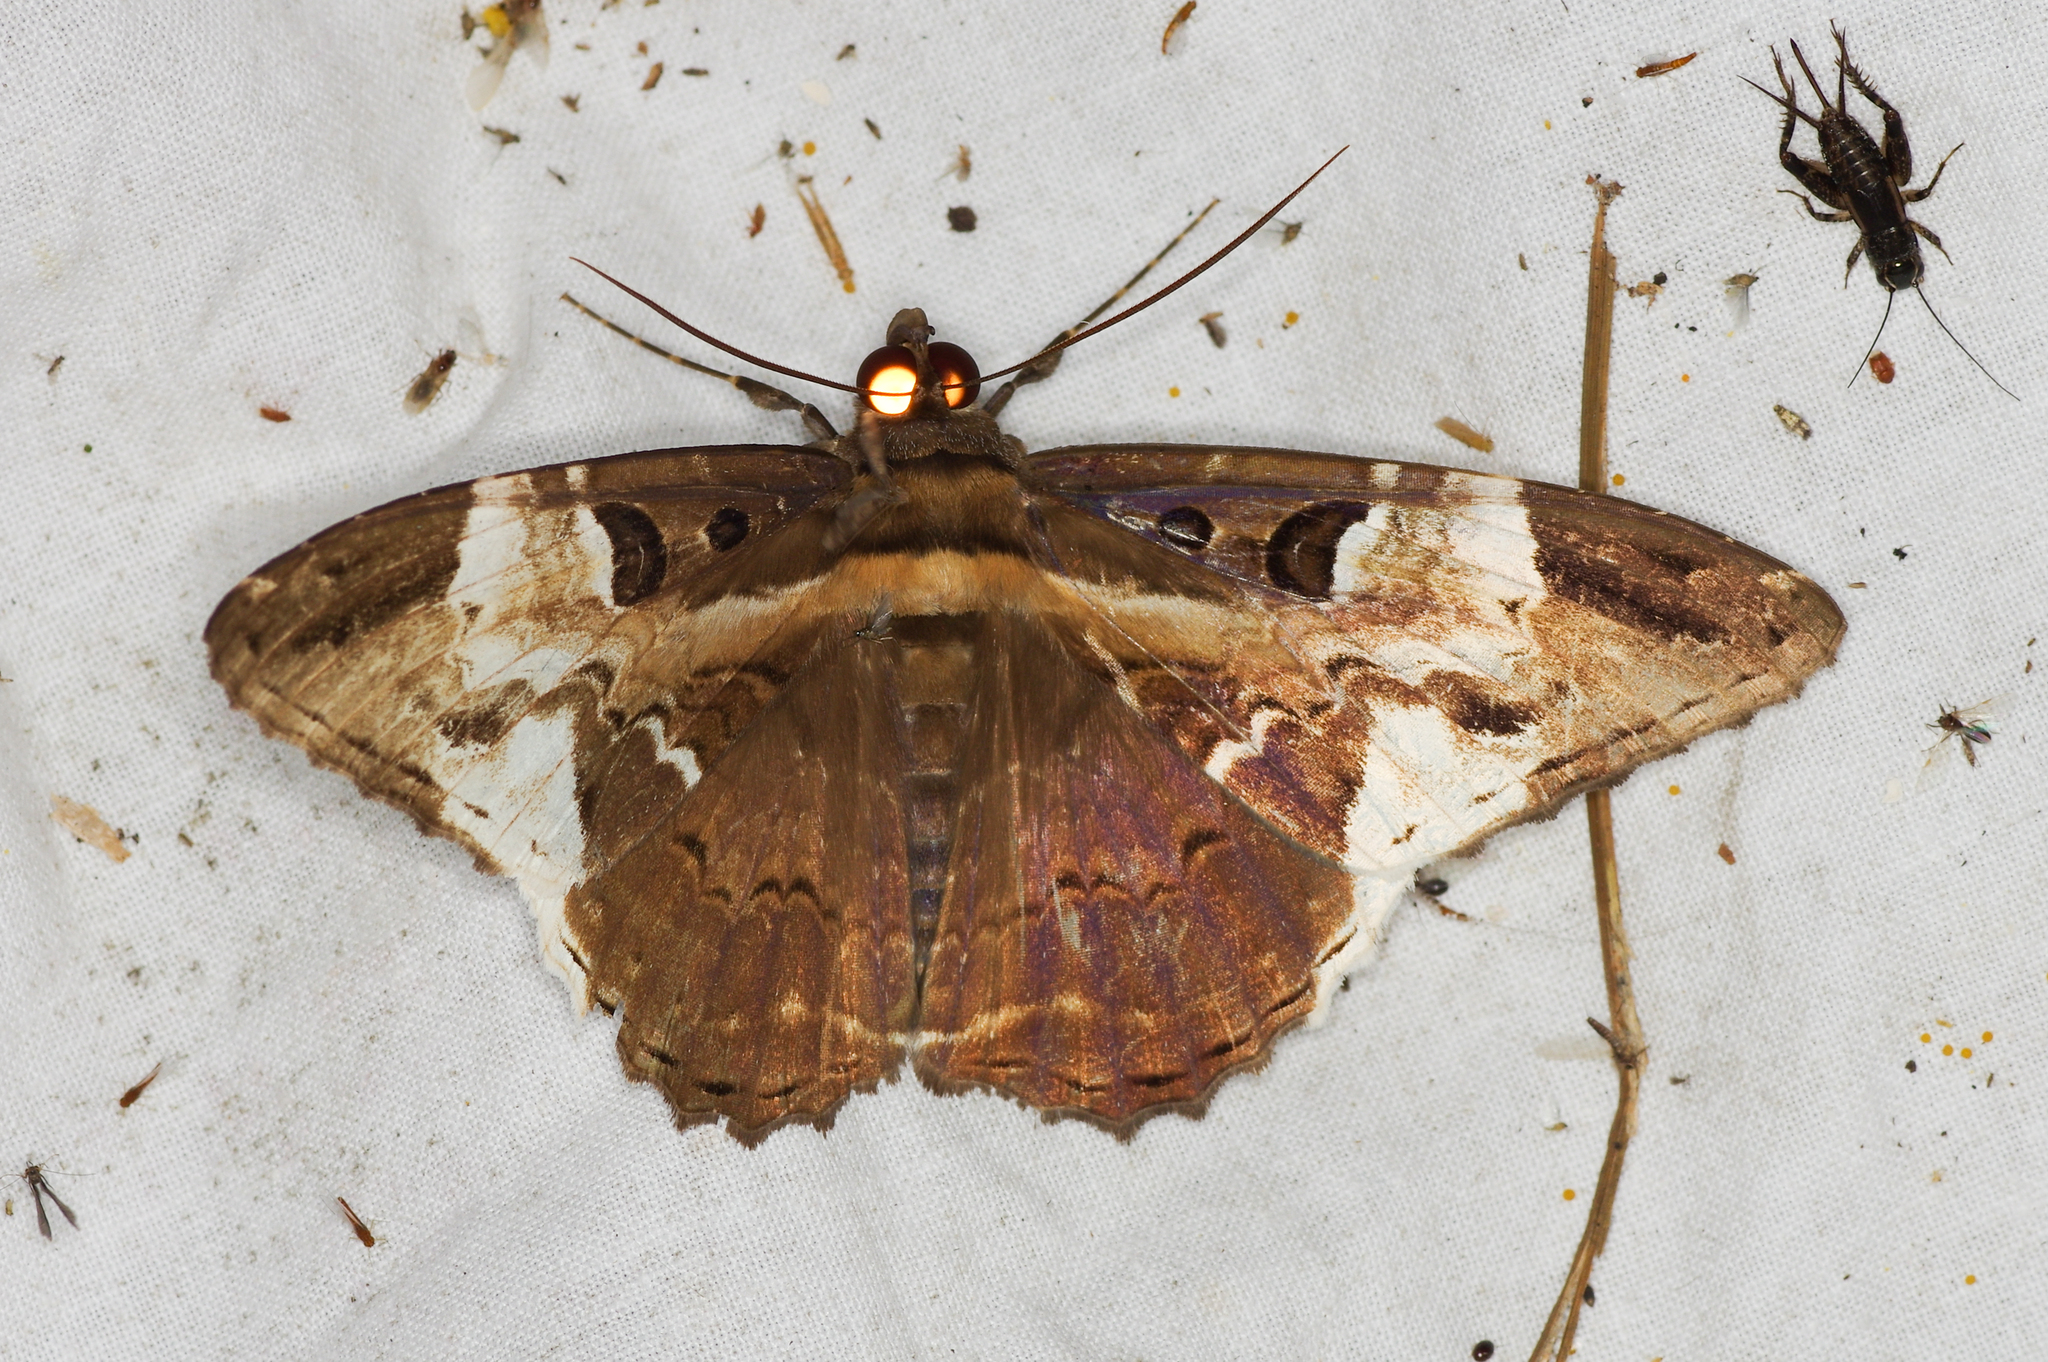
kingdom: Animalia
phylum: Arthropoda
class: Insecta
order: Lepidoptera
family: Erebidae
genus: Feigeria
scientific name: Feigeria herilia
